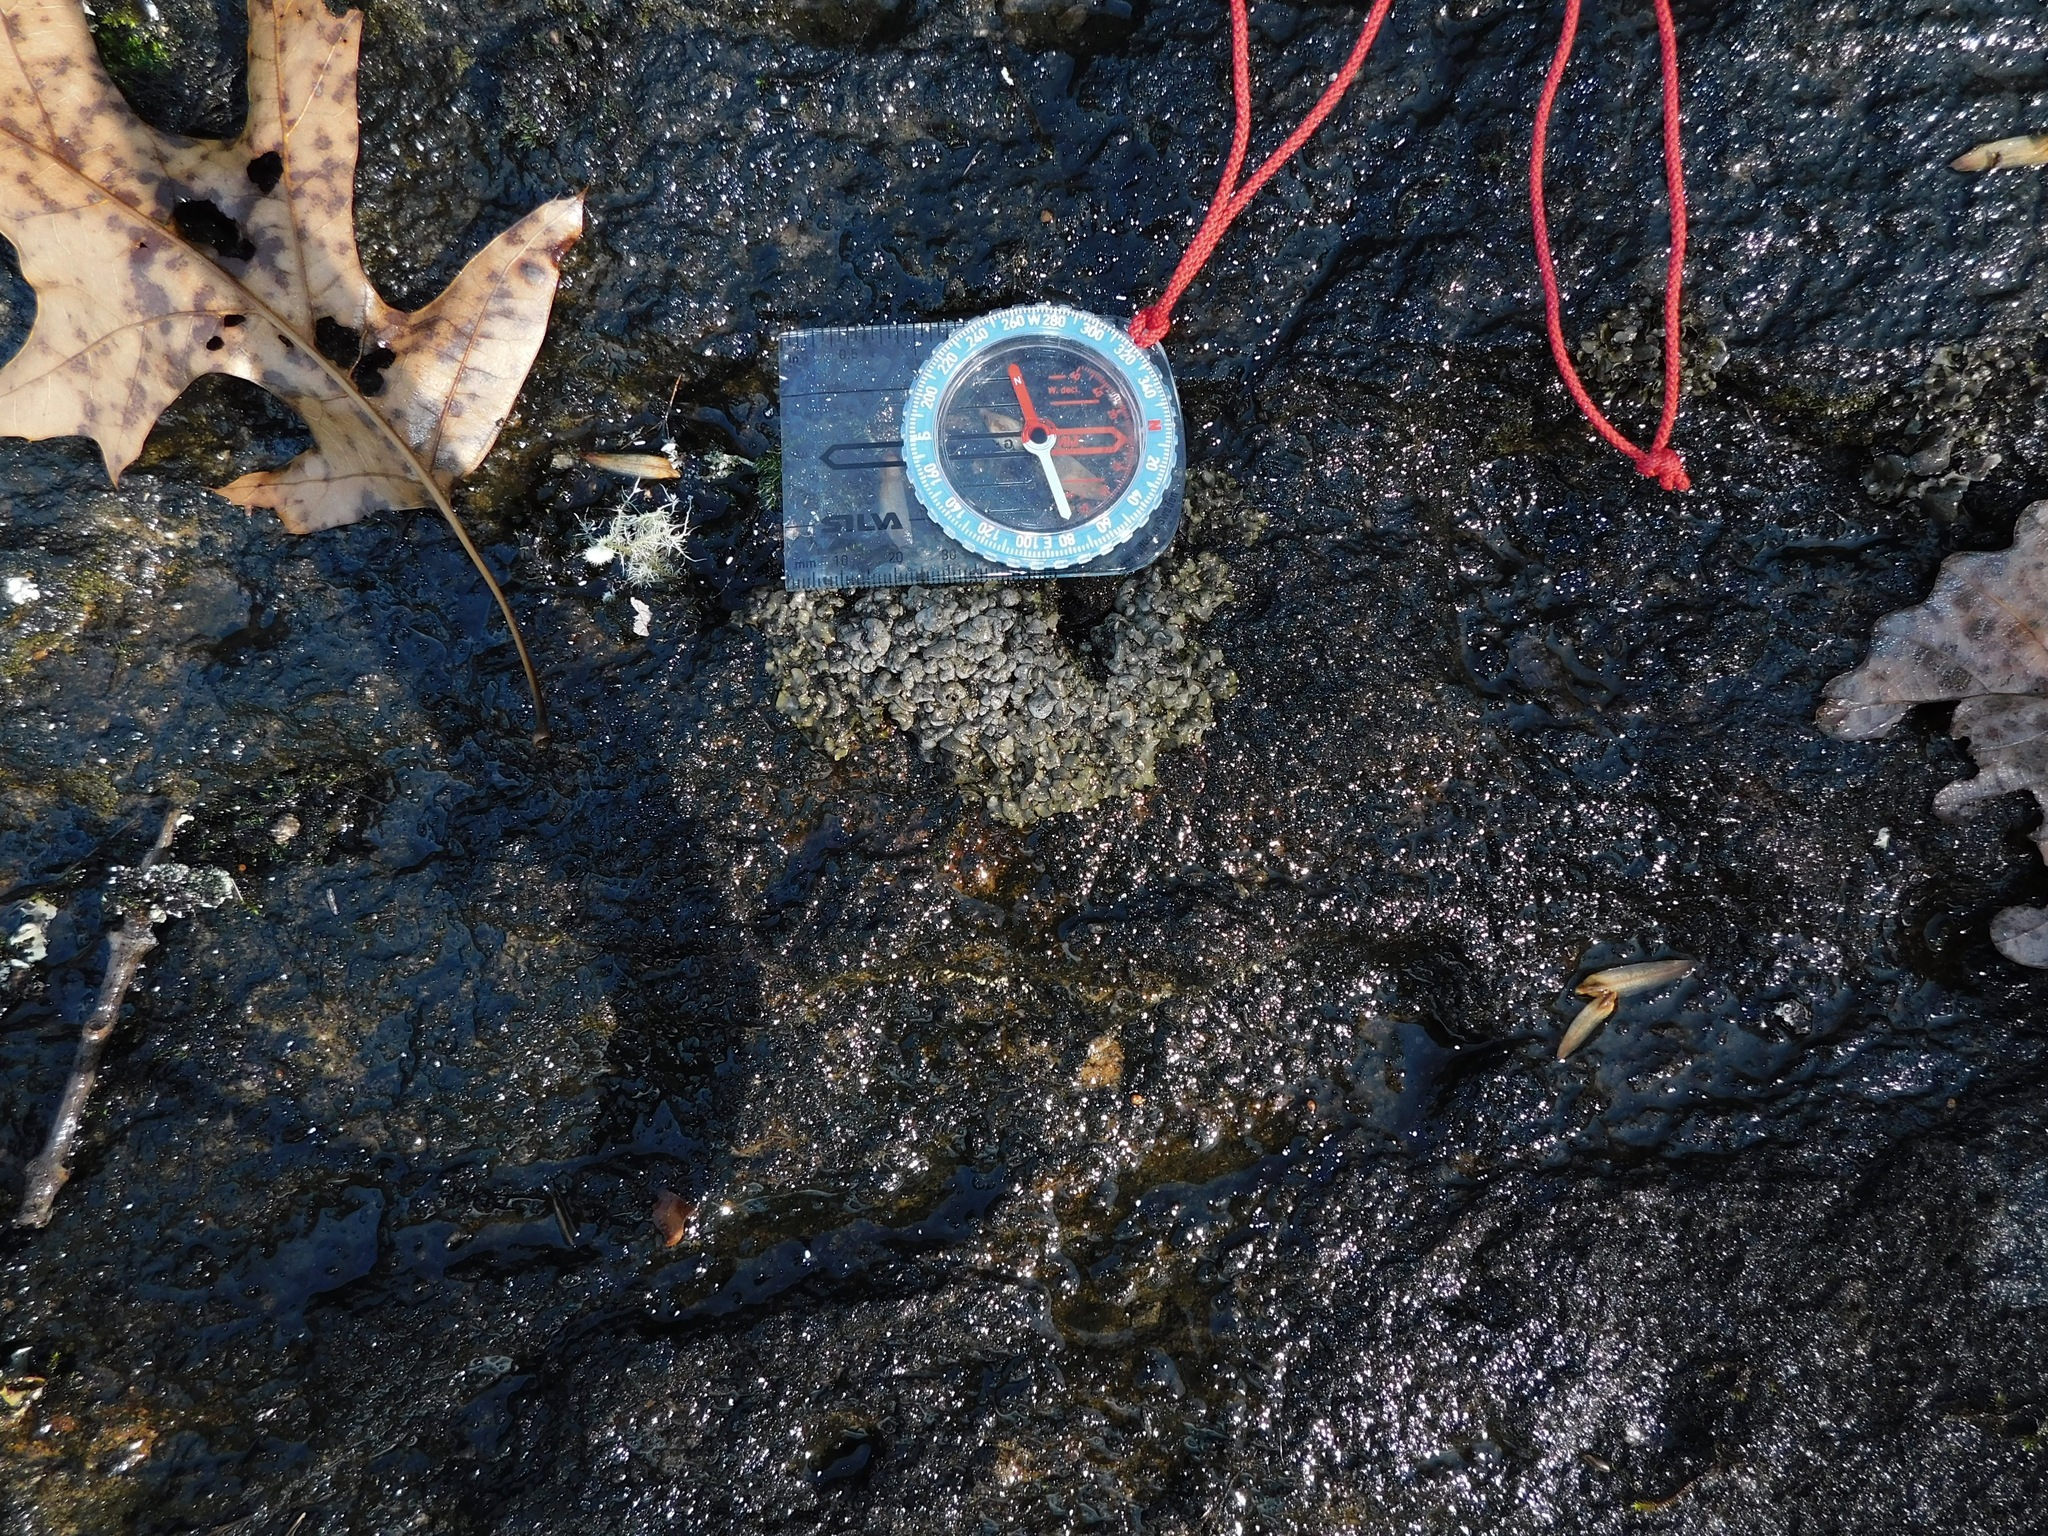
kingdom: Fungi
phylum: Ascomycota
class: Eurotiomycetes
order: Verrucariales
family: Verrucariaceae
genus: Dermatocarpon
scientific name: Dermatocarpon intestiniforme
